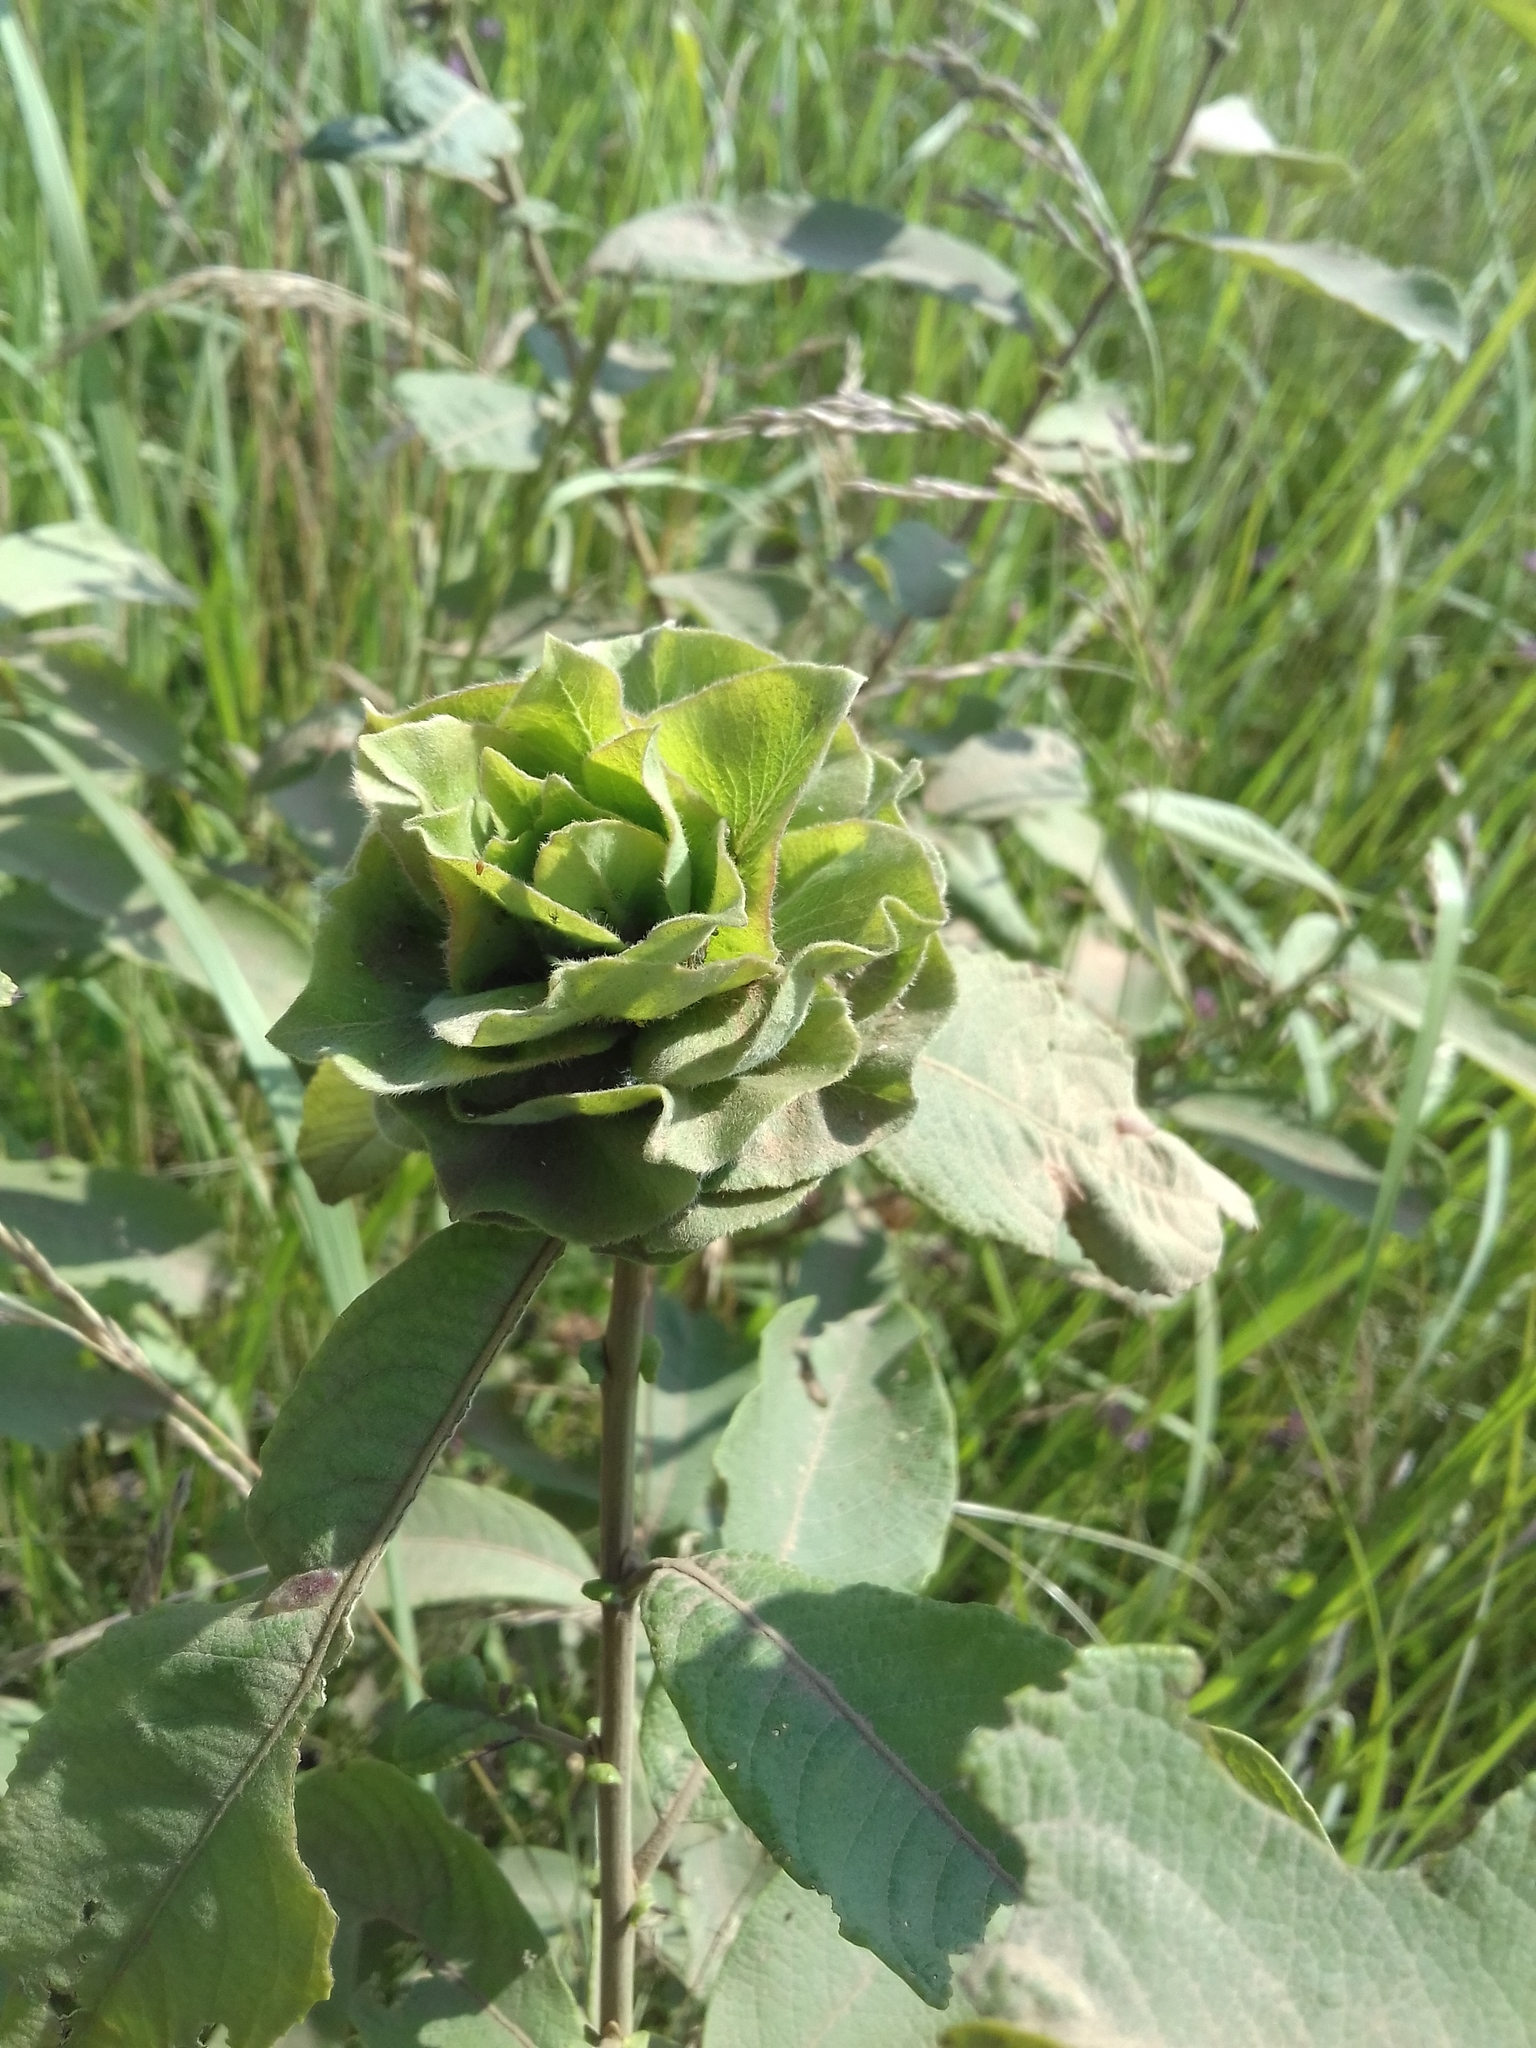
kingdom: Animalia
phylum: Arthropoda
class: Insecta
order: Diptera
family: Cecidomyiidae
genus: Rabdophaga
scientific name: Rabdophaga rosaria
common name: Willow rose gall midge
